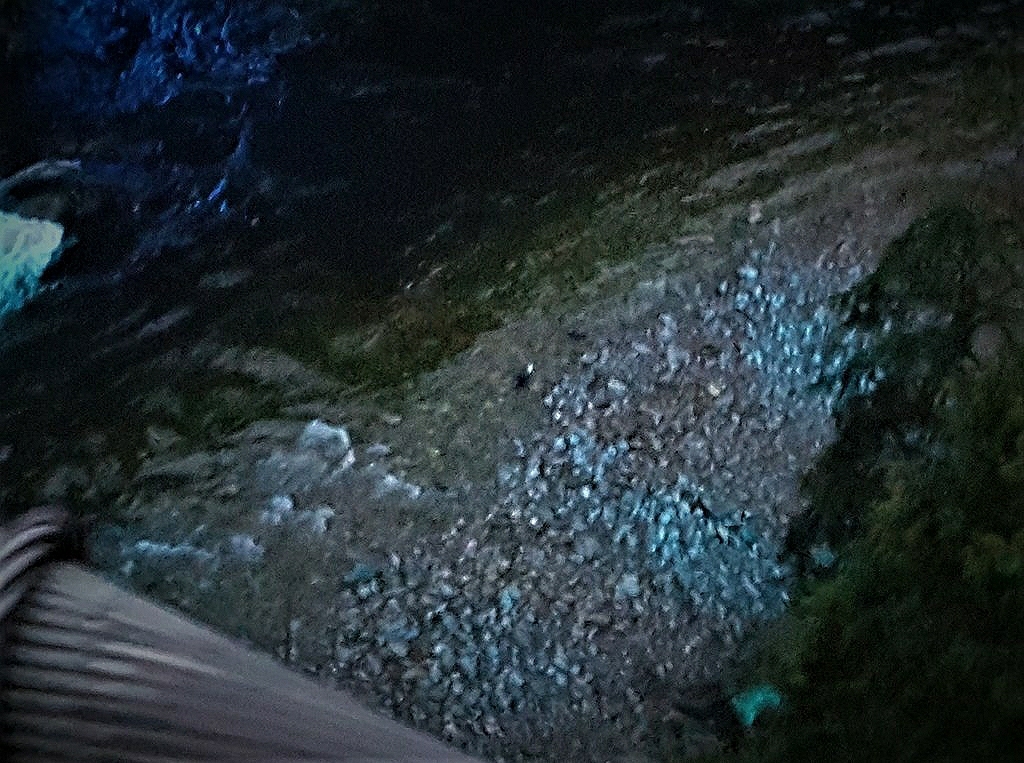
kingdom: Animalia
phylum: Chordata
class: Aves
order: Accipitriformes
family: Accipitridae
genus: Haliaeetus
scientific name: Haliaeetus leucocephalus
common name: Bald eagle
